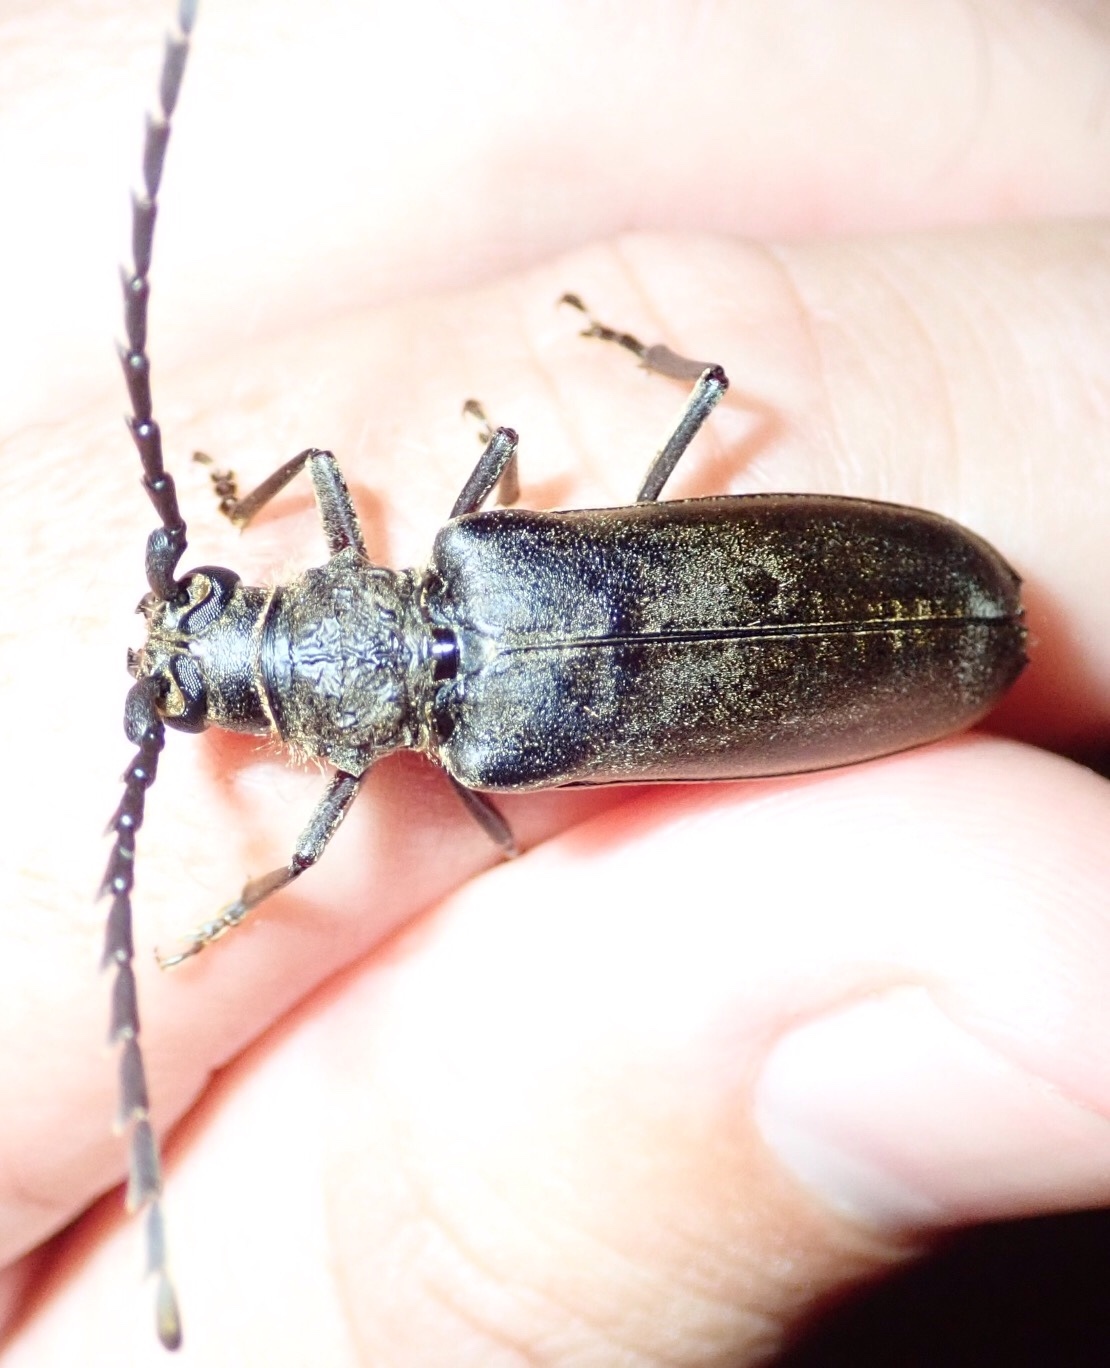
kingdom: Animalia
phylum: Arthropoda
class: Insecta
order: Coleoptera
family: Cerambycidae
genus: Neoplocaederus
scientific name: Neoplocaederus granulatus
